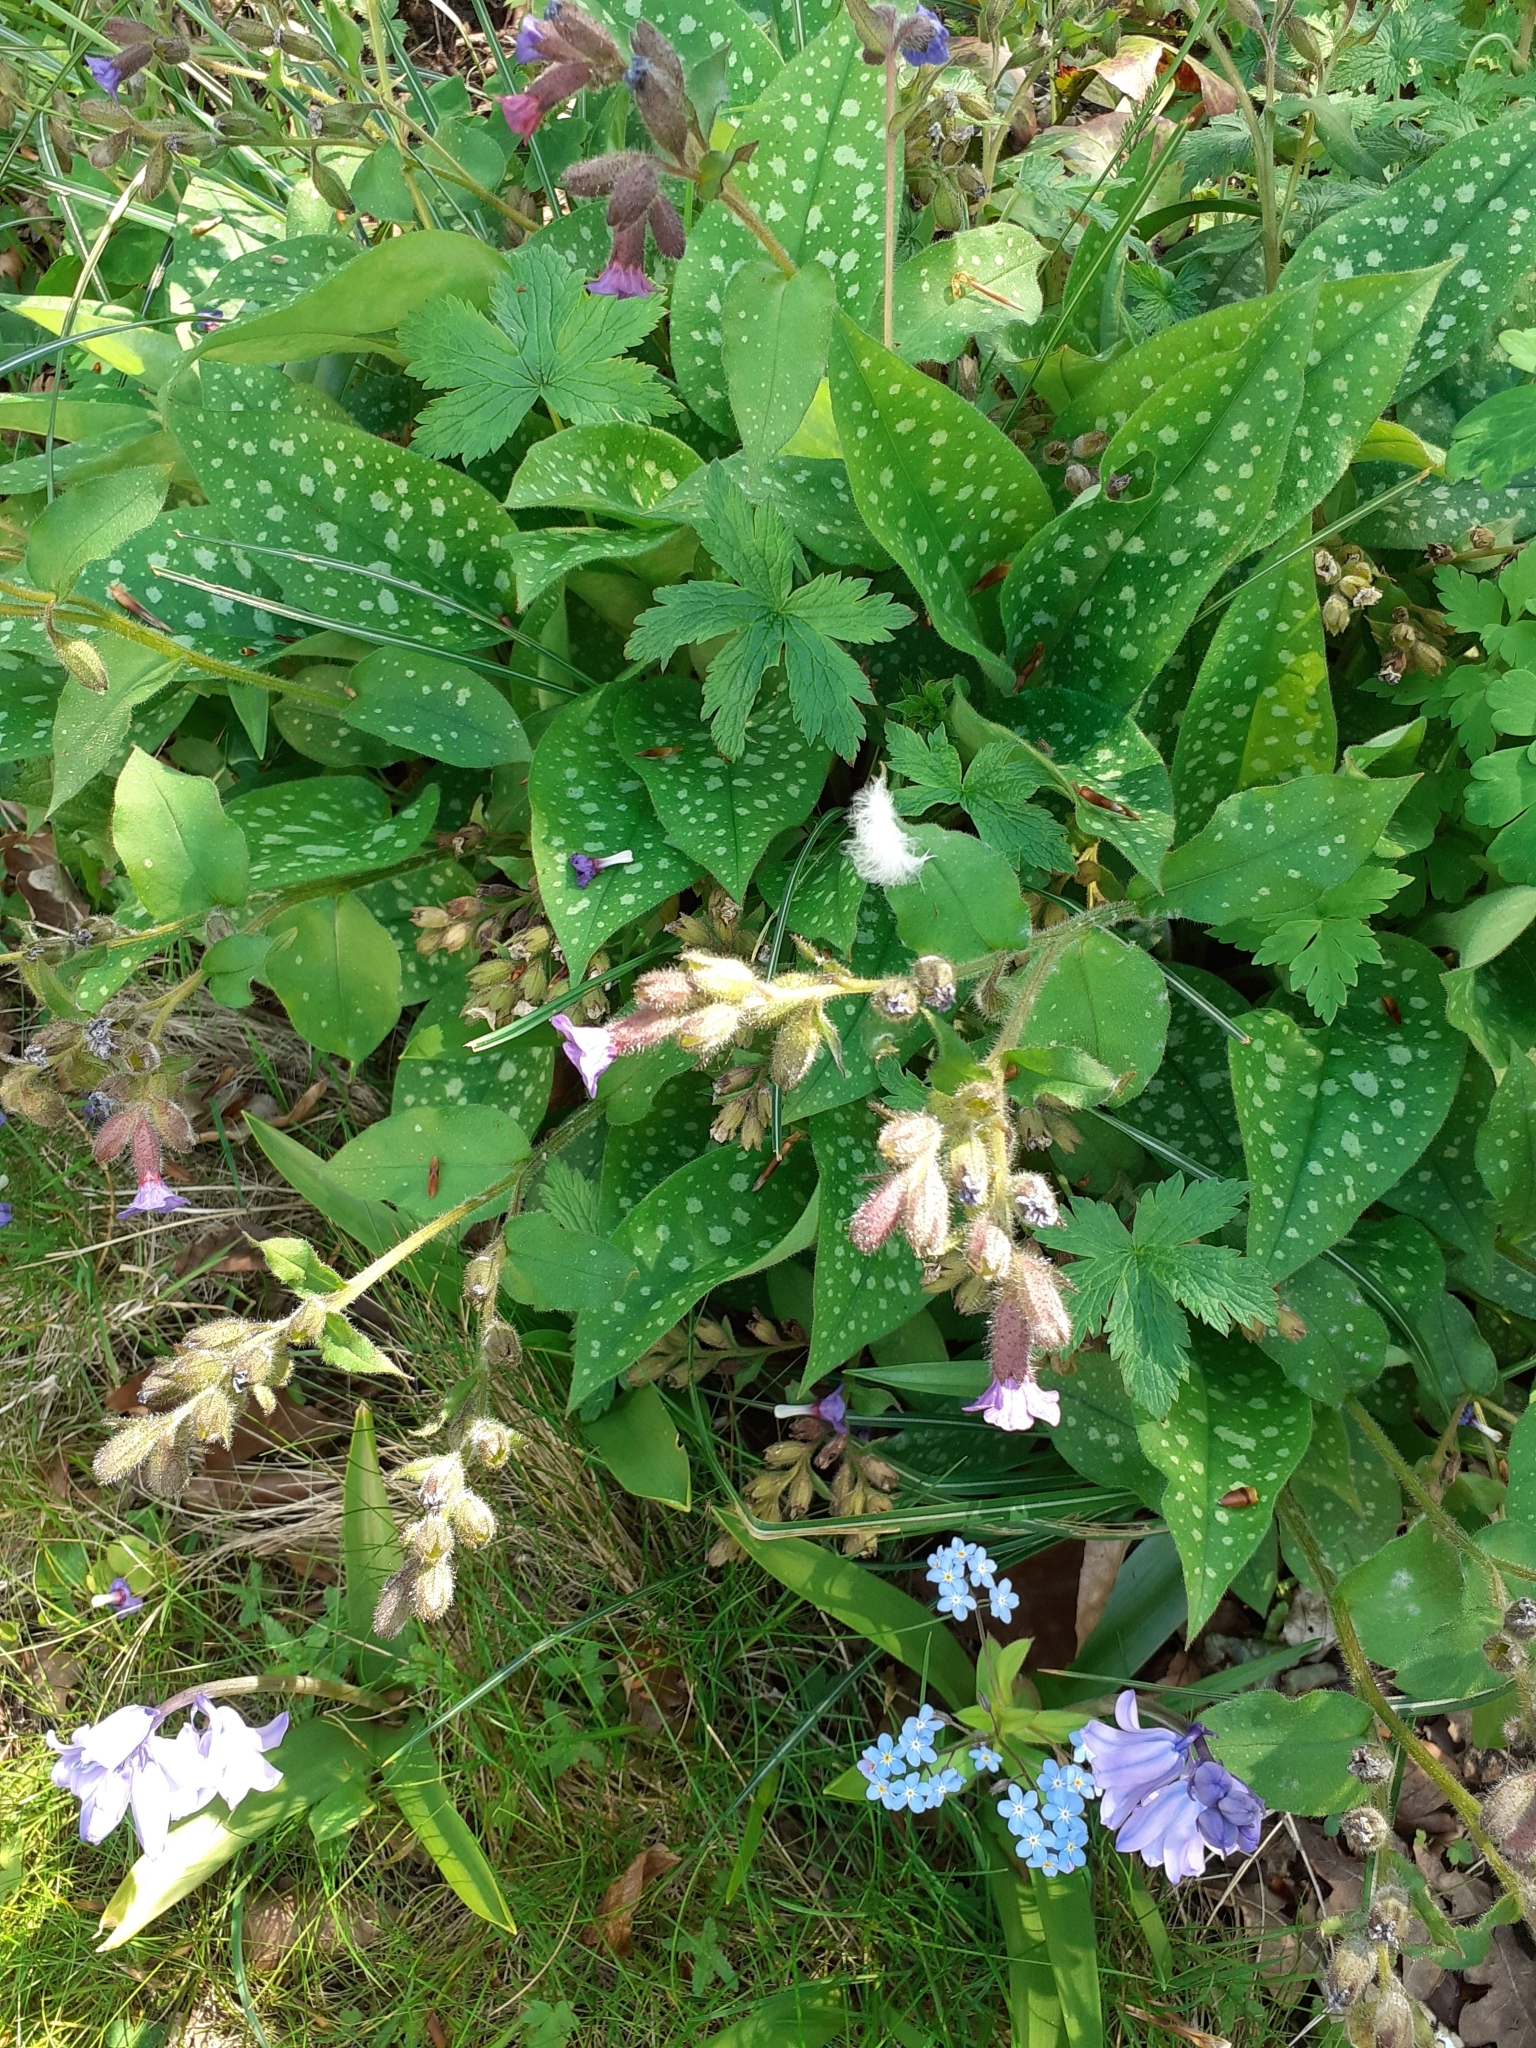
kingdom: Plantae
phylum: Tracheophyta
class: Magnoliopsida
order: Boraginales
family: Boraginaceae
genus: Pulmonaria
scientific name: Pulmonaria officinalis
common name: Lungwort
